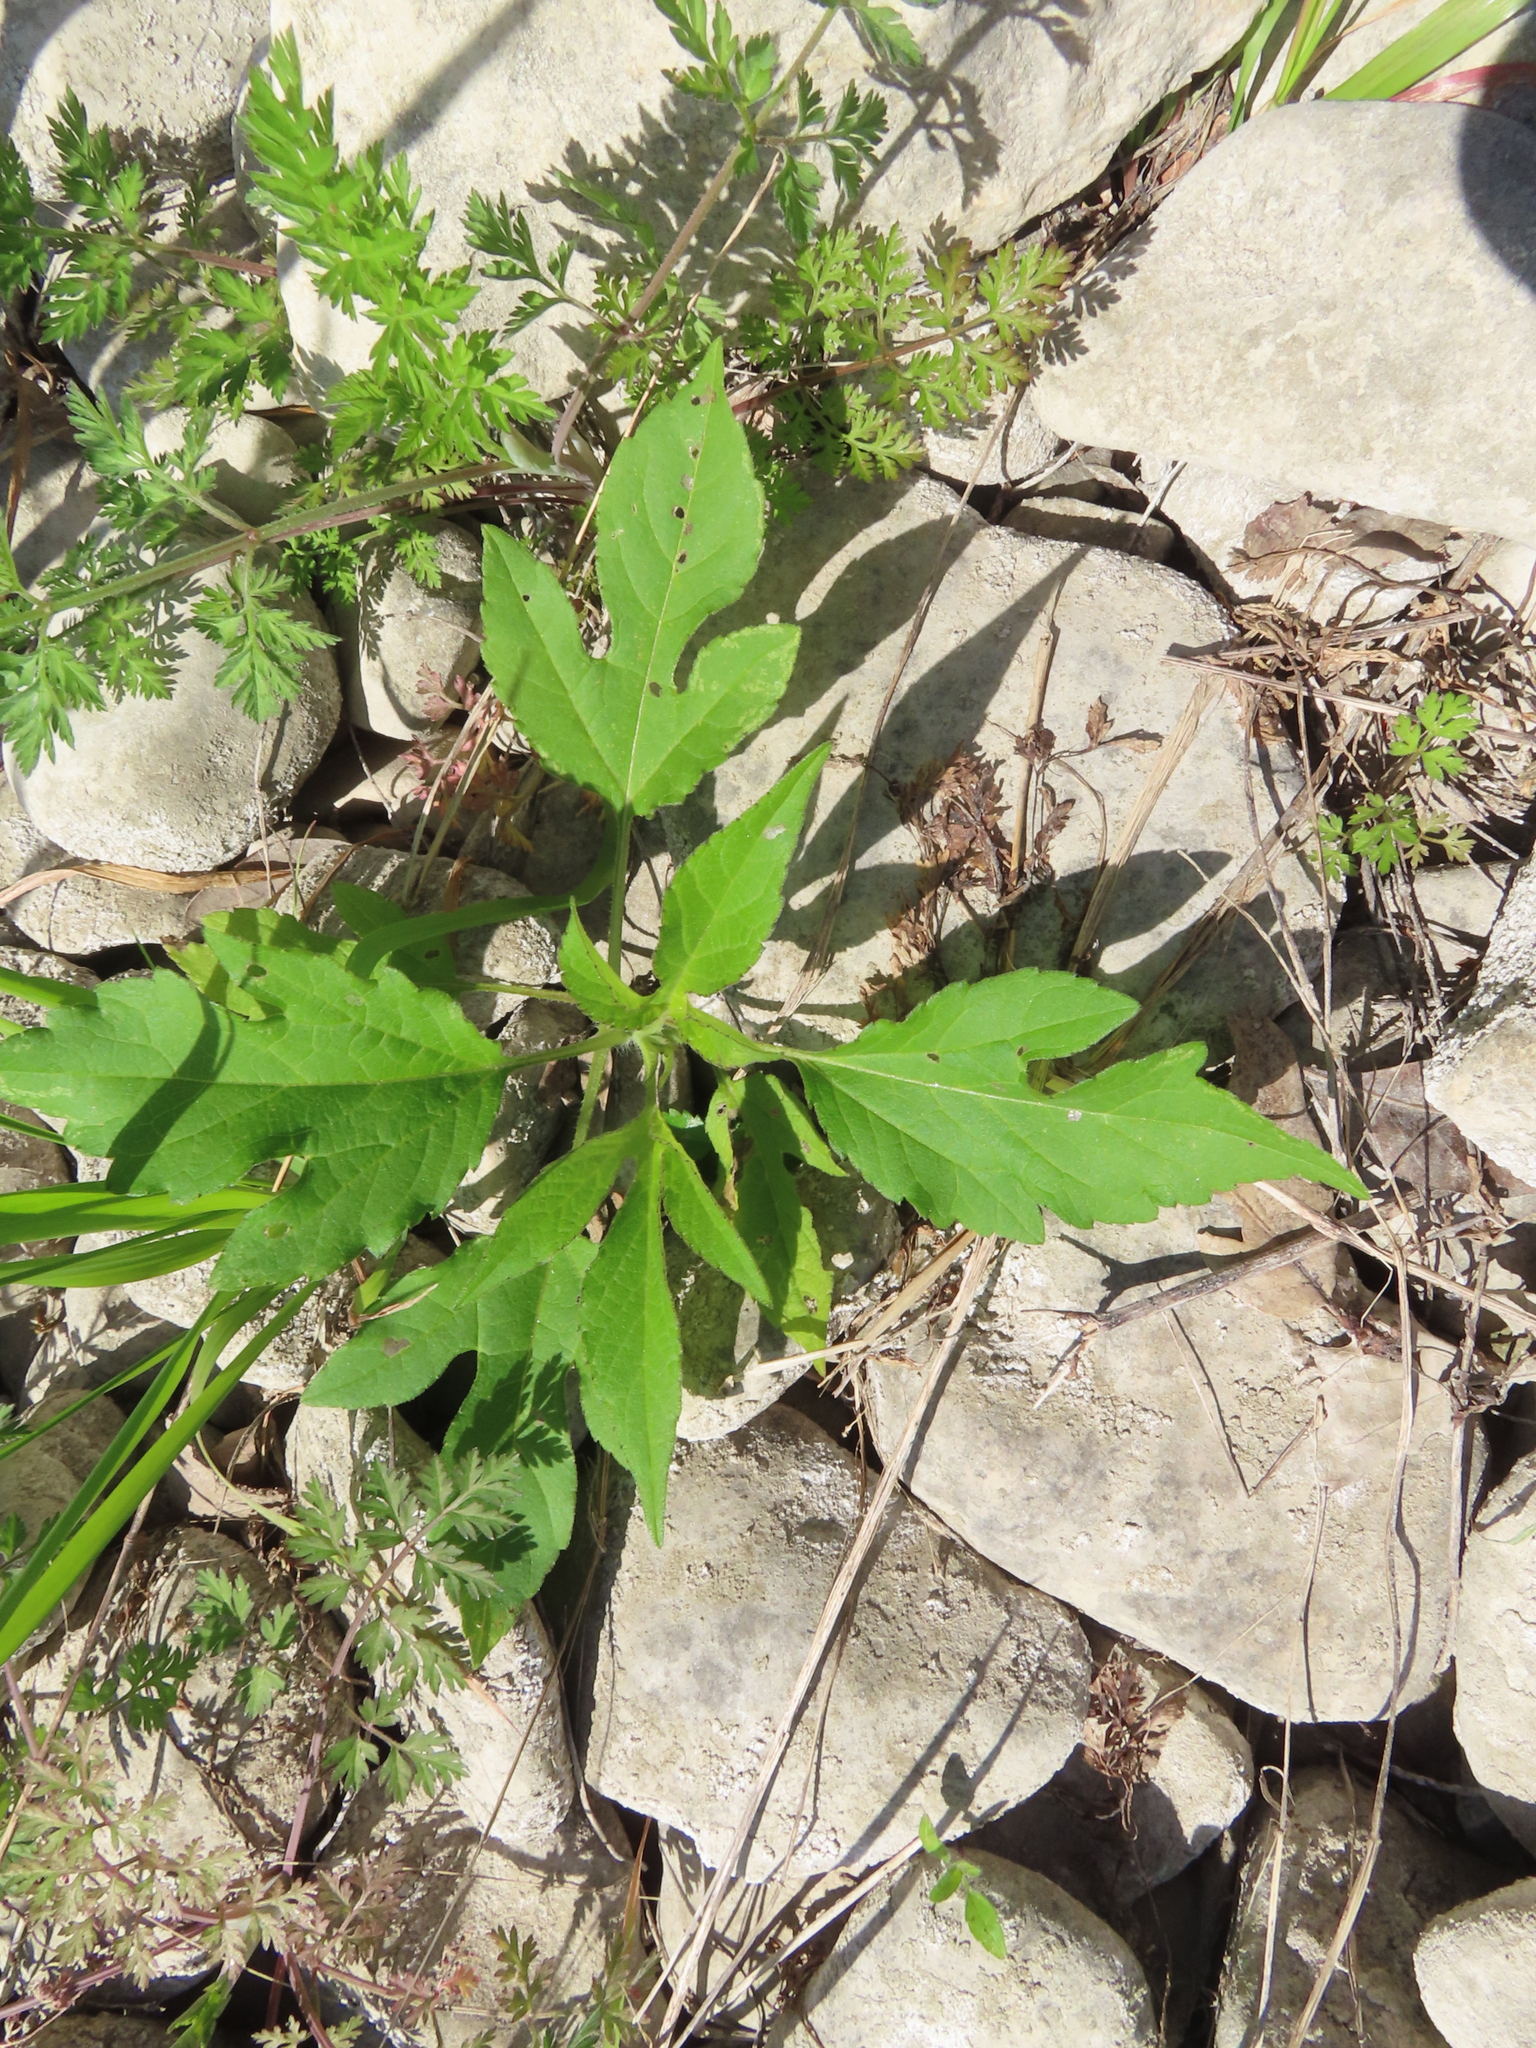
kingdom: Plantae
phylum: Tracheophyta
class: Magnoliopsida
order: Asterales
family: Asteraceae
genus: Ambrosia
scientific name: Ambrosia trifida
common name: Giant ragweed
